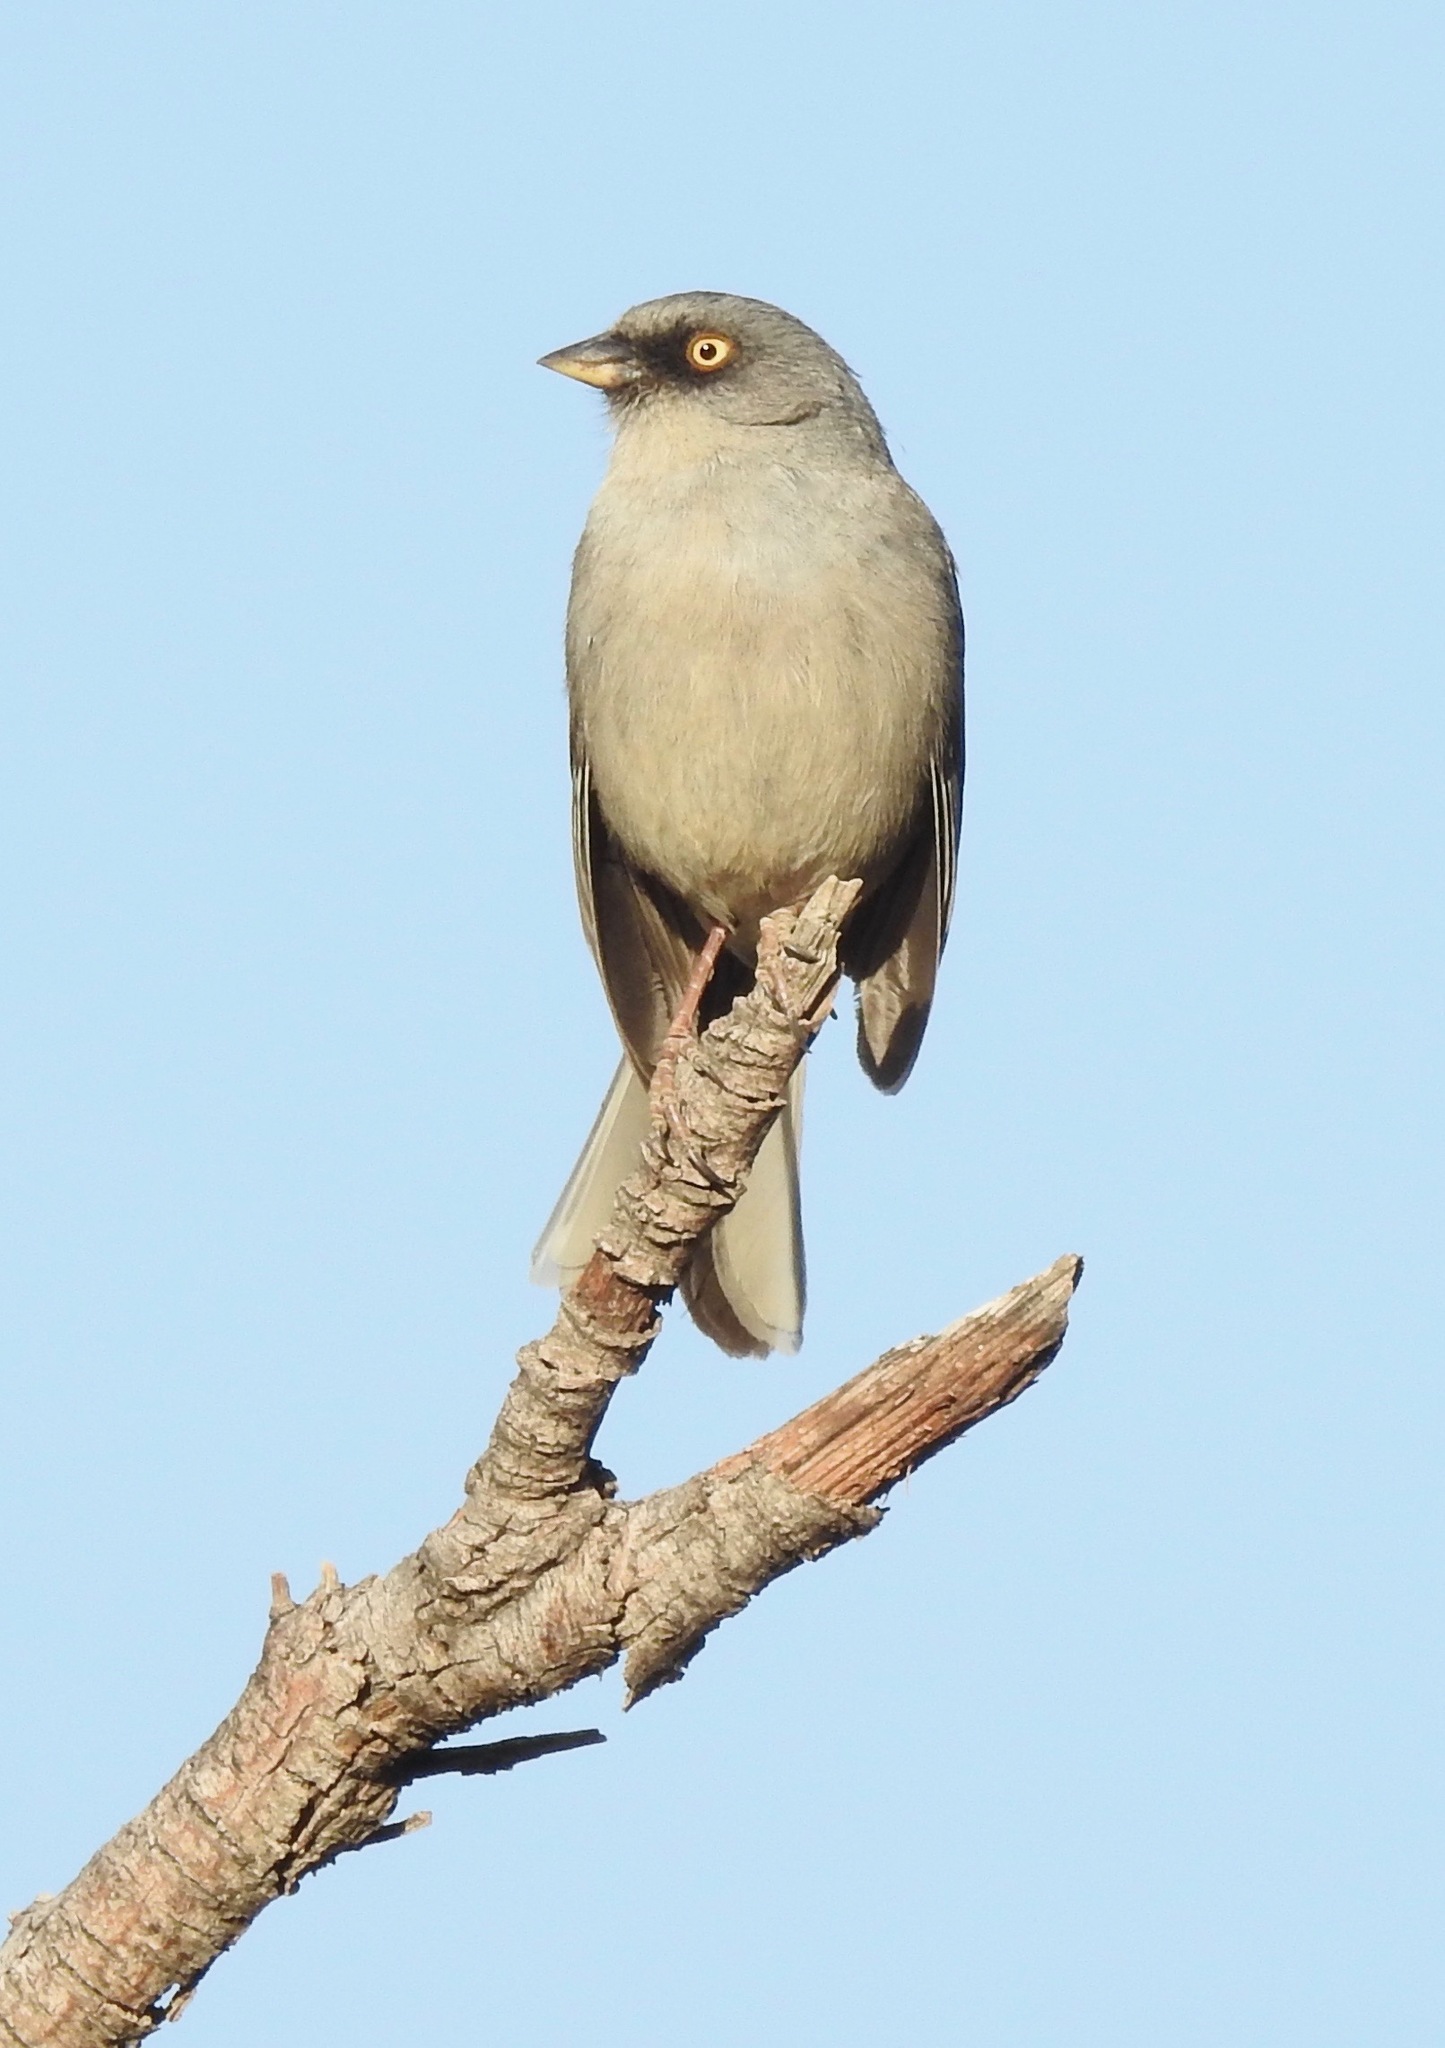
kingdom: Animalia
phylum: Chordata
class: Aves
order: Passeriformes
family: Passerellidae
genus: Junco
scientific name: Junco phaeonotus
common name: Yellow-eyed junco
